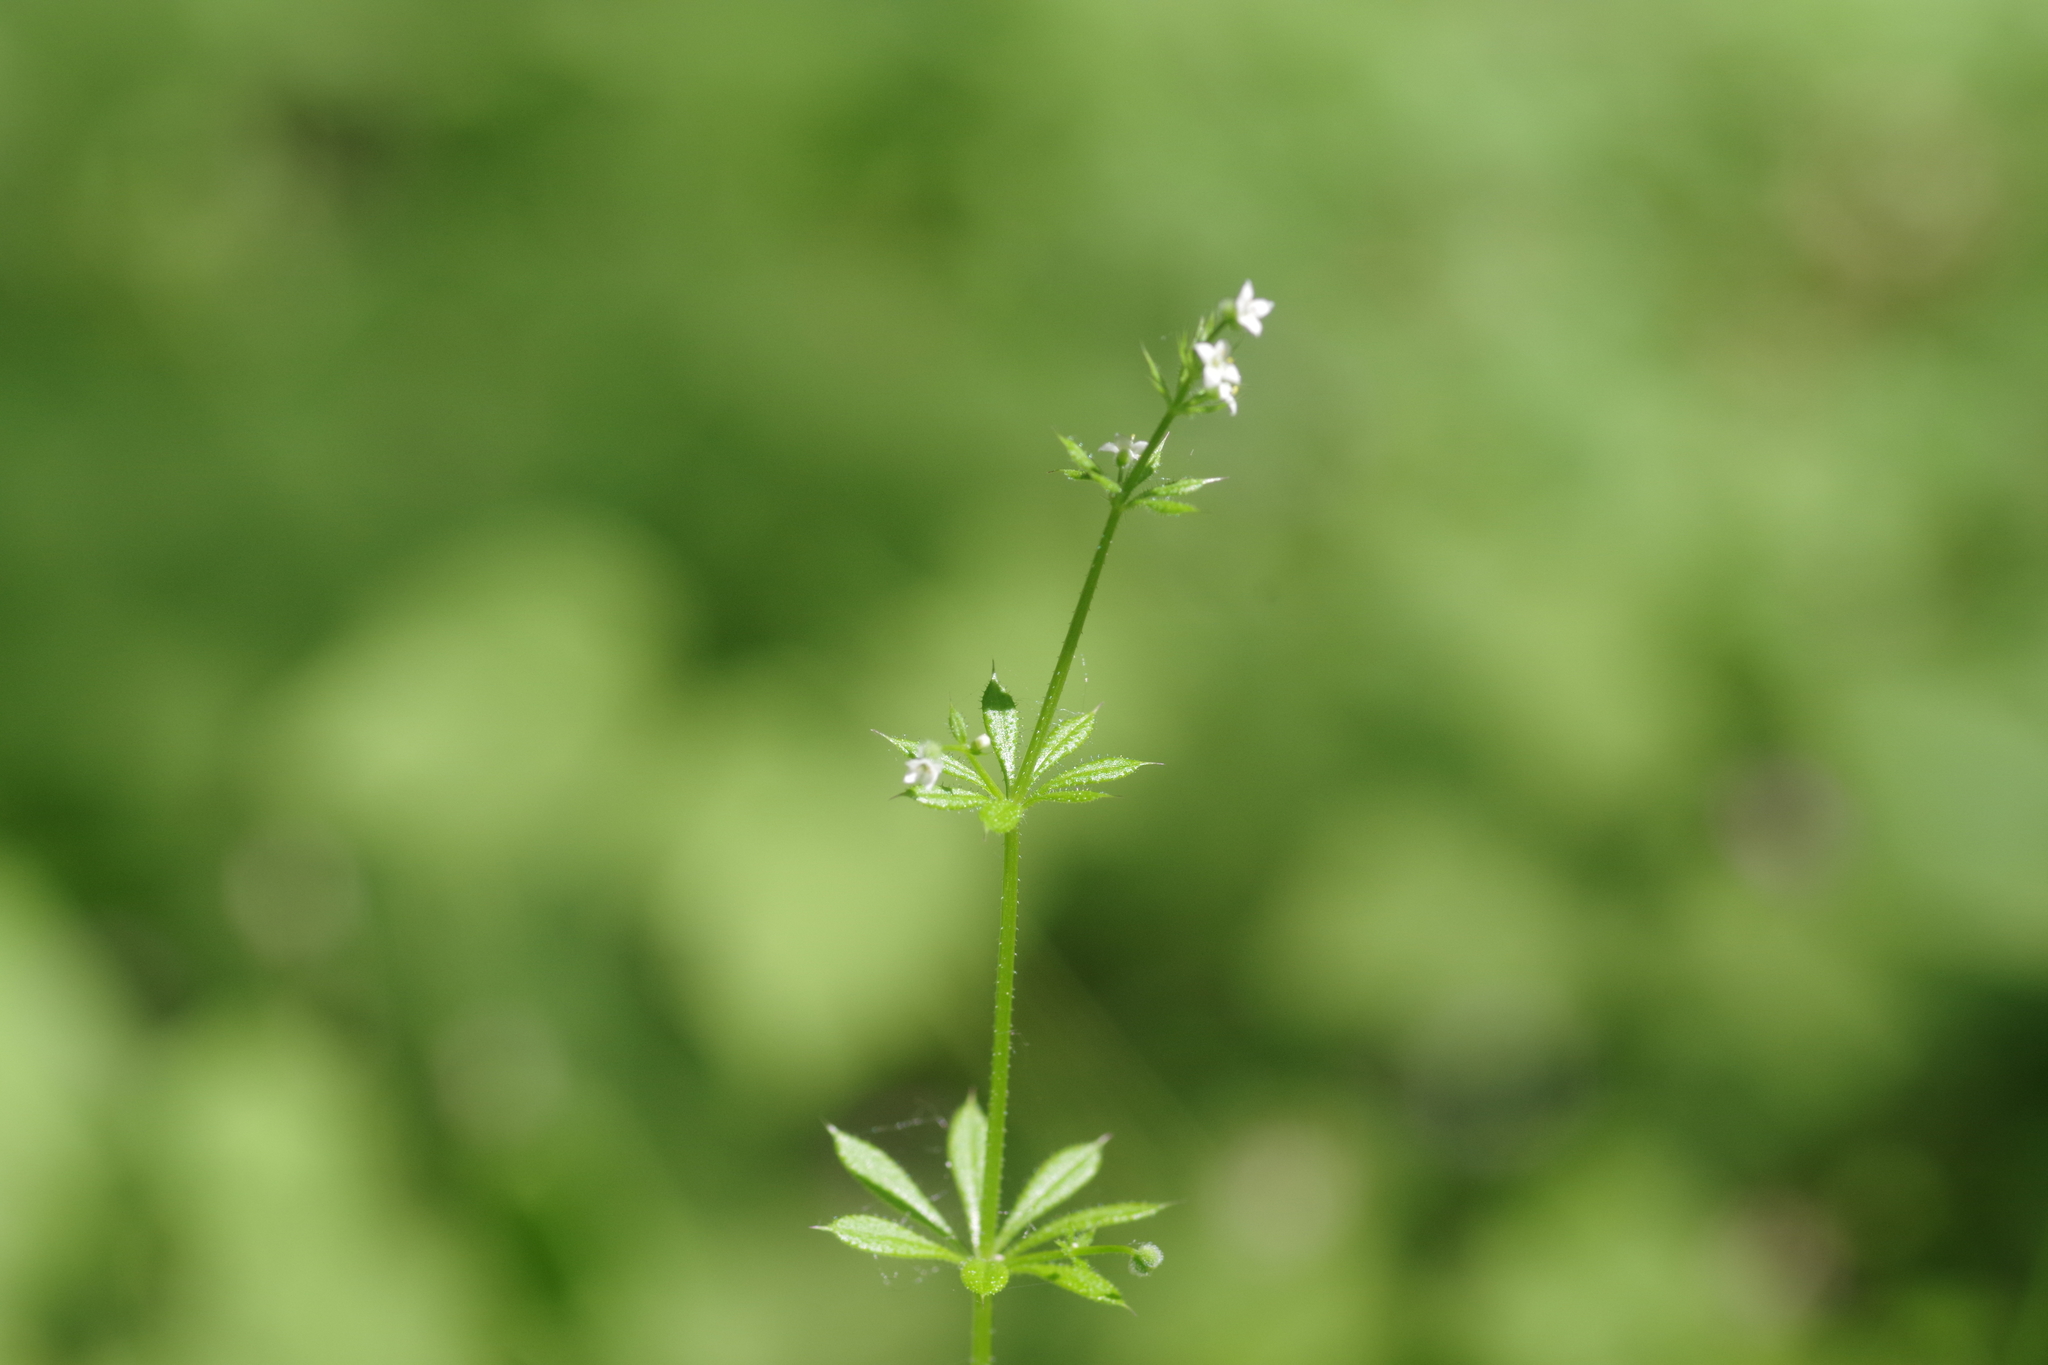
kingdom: Plantae
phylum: Tracheophyta
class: Magnoliopsida
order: Gentianales
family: Rubiaceae
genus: Galium
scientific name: Galium aparine
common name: Cleavers
